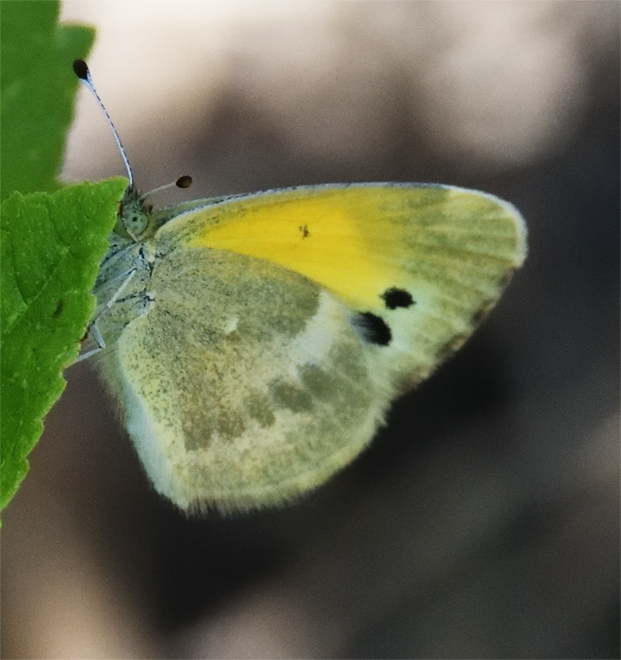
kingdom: Animalia
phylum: Arthropoda
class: Insecta
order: Lepidoptera
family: Pieridae
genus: Nathalis
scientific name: Nathalis iole
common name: Dainty sulphur
